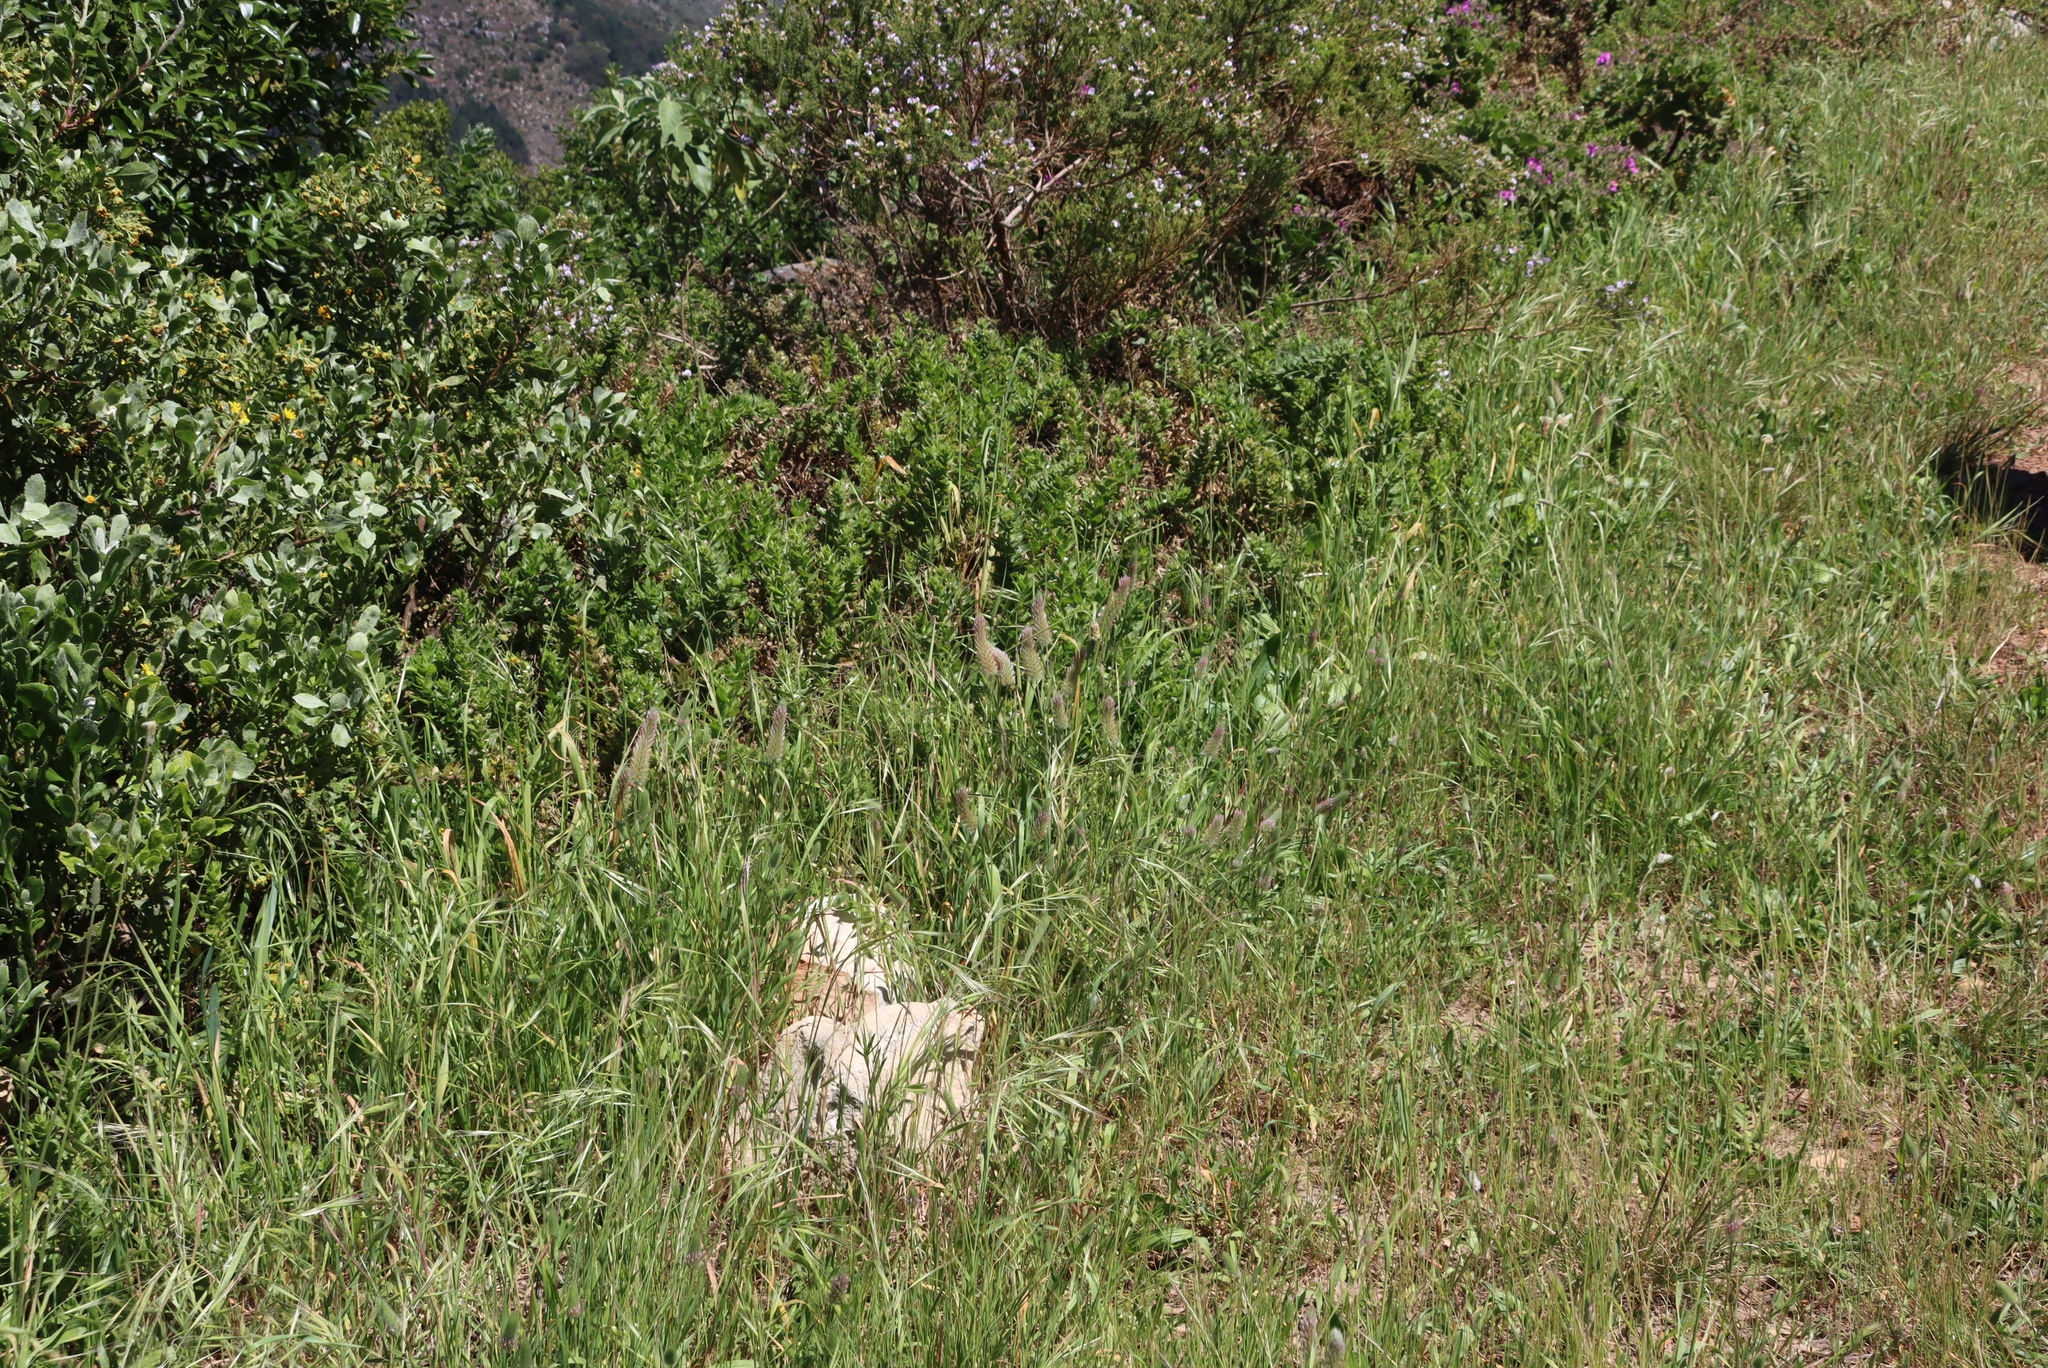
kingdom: Plantae
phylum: Tracheophyta
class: Magnoliopsida
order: Fabales
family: Fabaceae
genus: Trifolium
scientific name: Trifolium angustifolium
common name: Narrow clover
